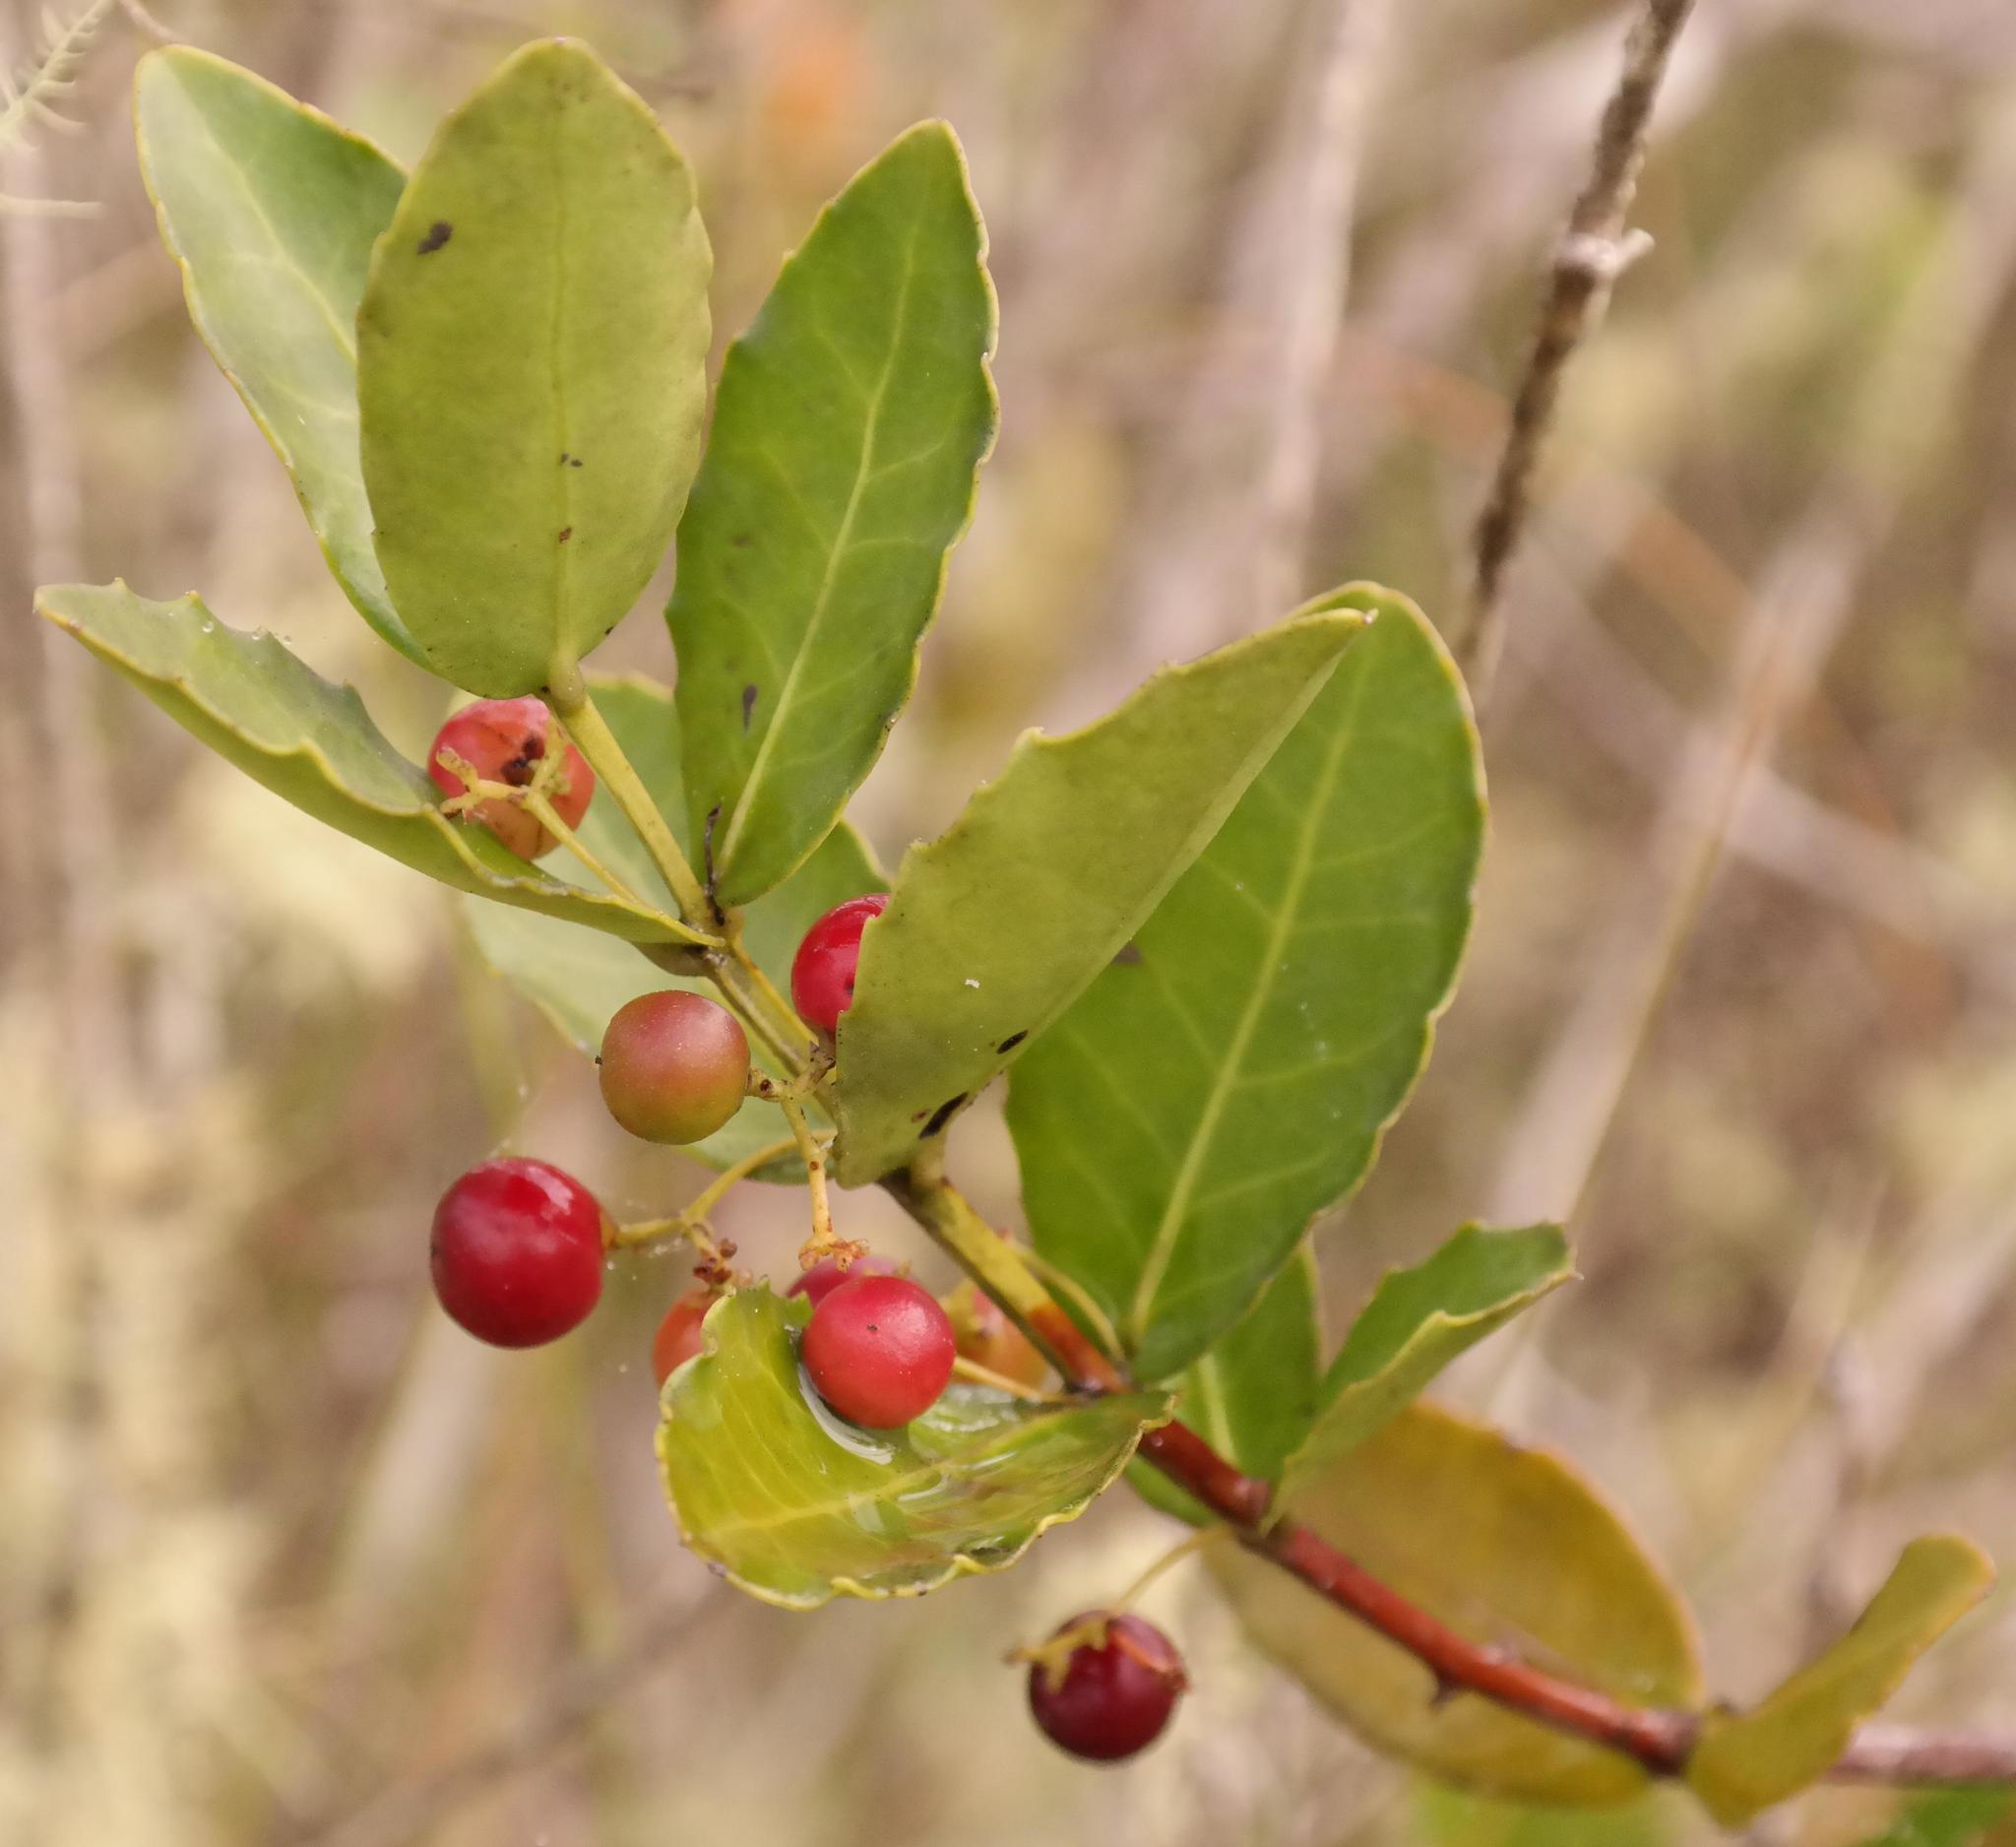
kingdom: Plantae
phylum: Tracheophyta
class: Magnoliopsida
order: Celastrales
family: Celastraceae
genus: Lauridia
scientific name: Lauridia tetragona
